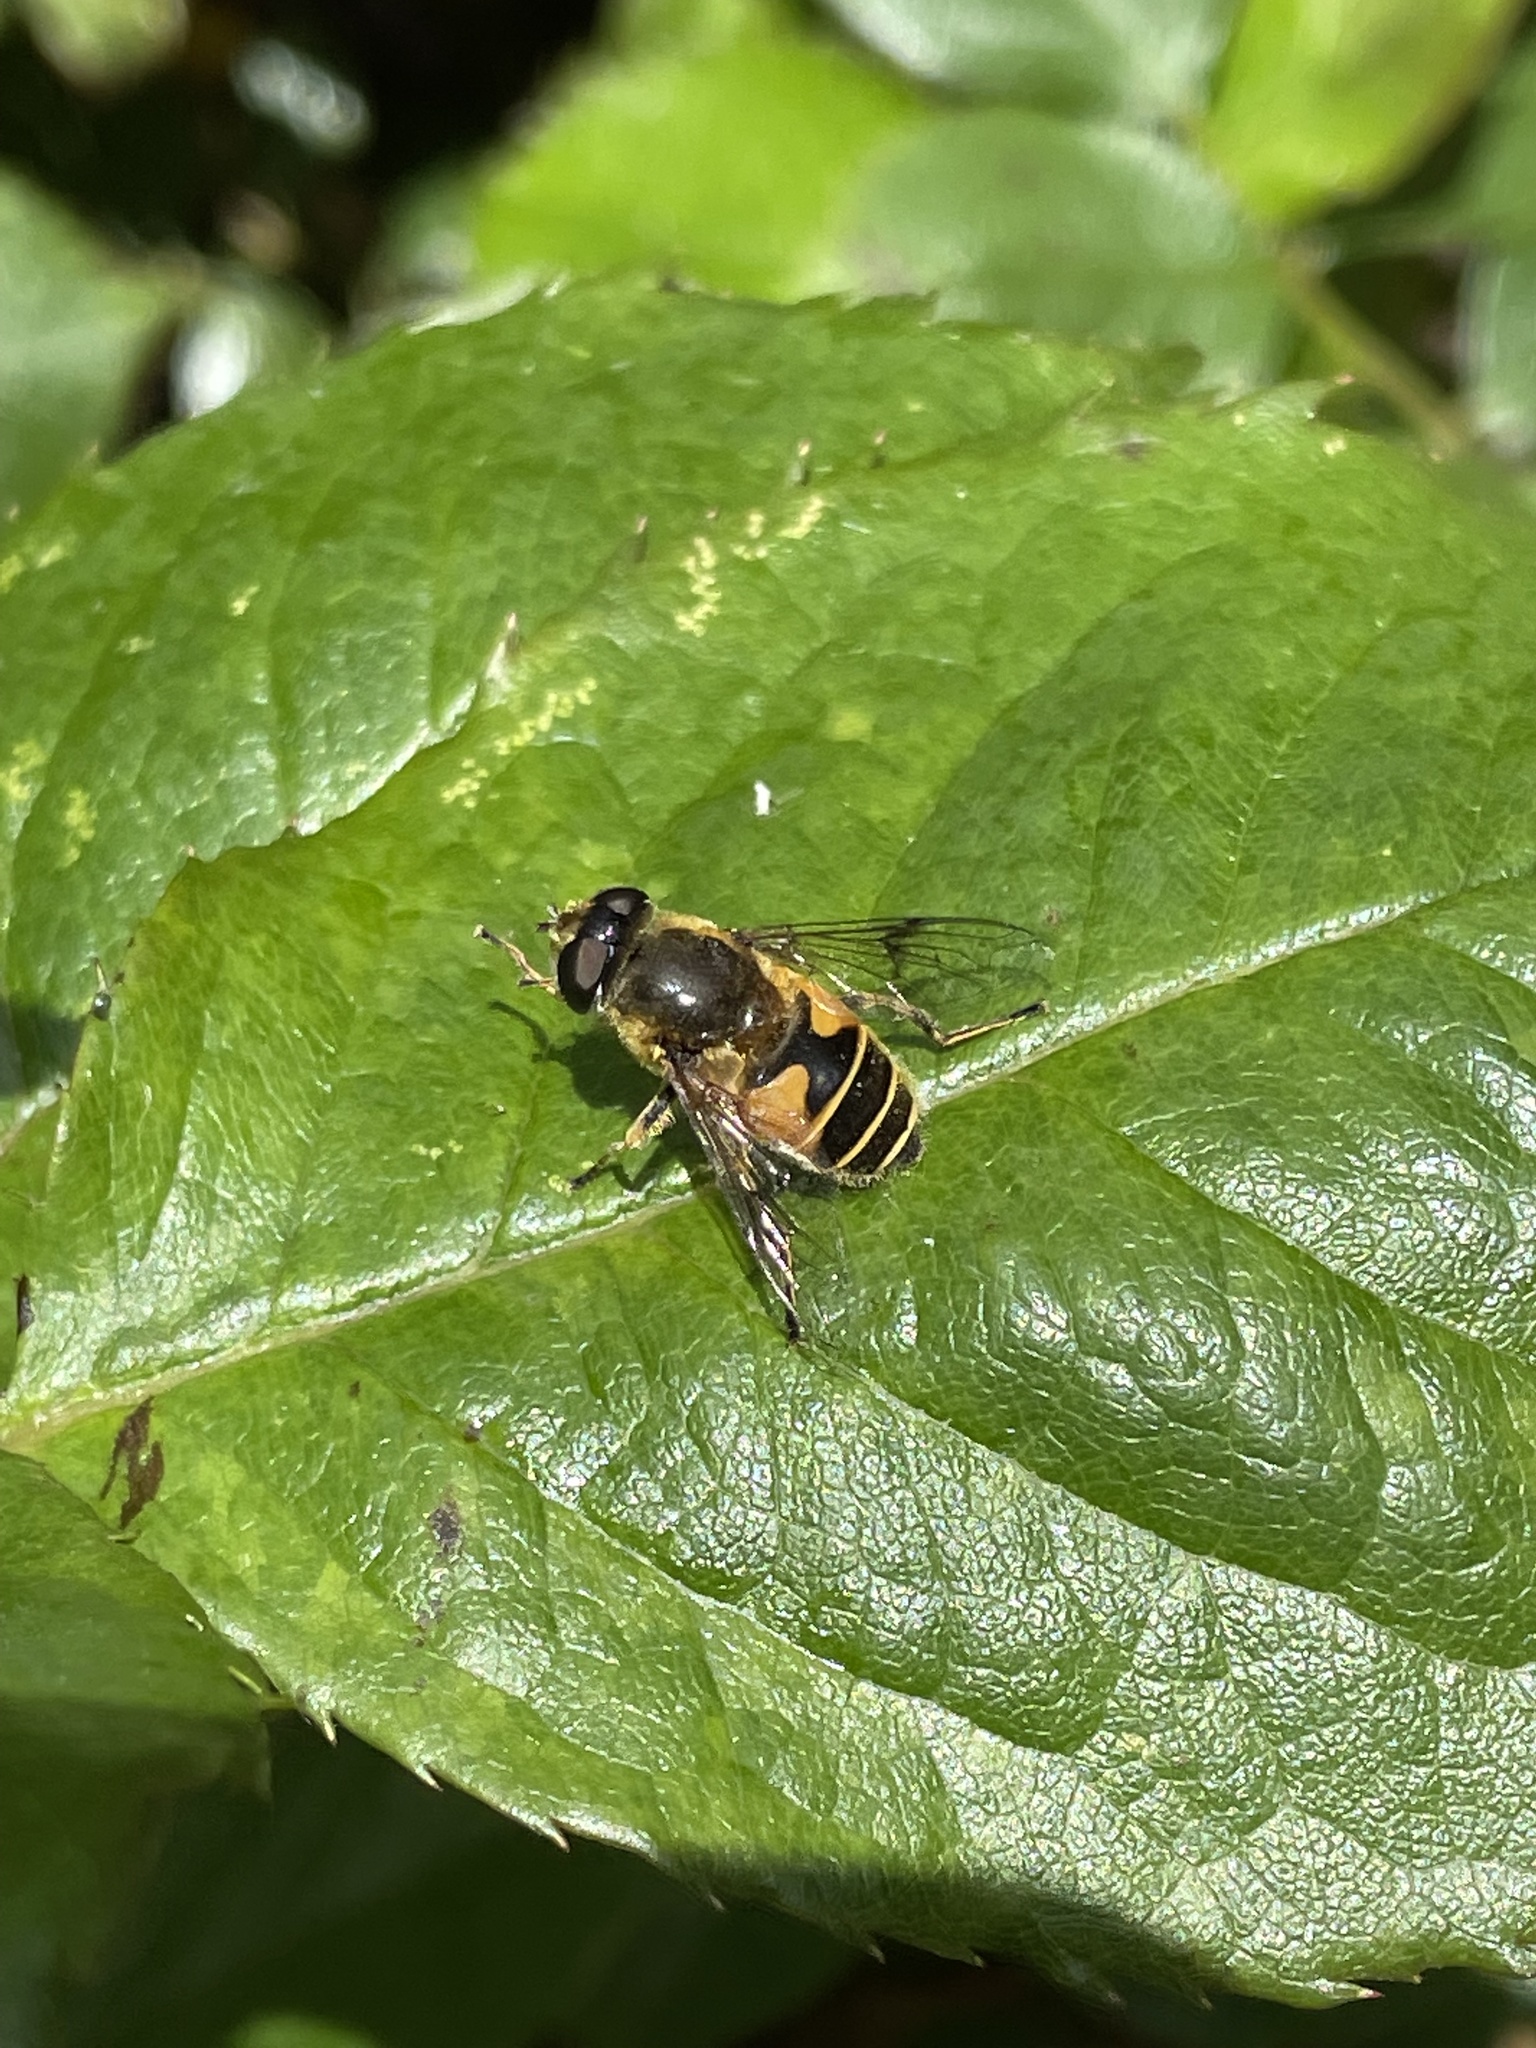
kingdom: Animalia
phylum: Arthropoda
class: Insecta
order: Diptera
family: Syrphidae
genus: Cheilosia
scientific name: Cheilosia morio
